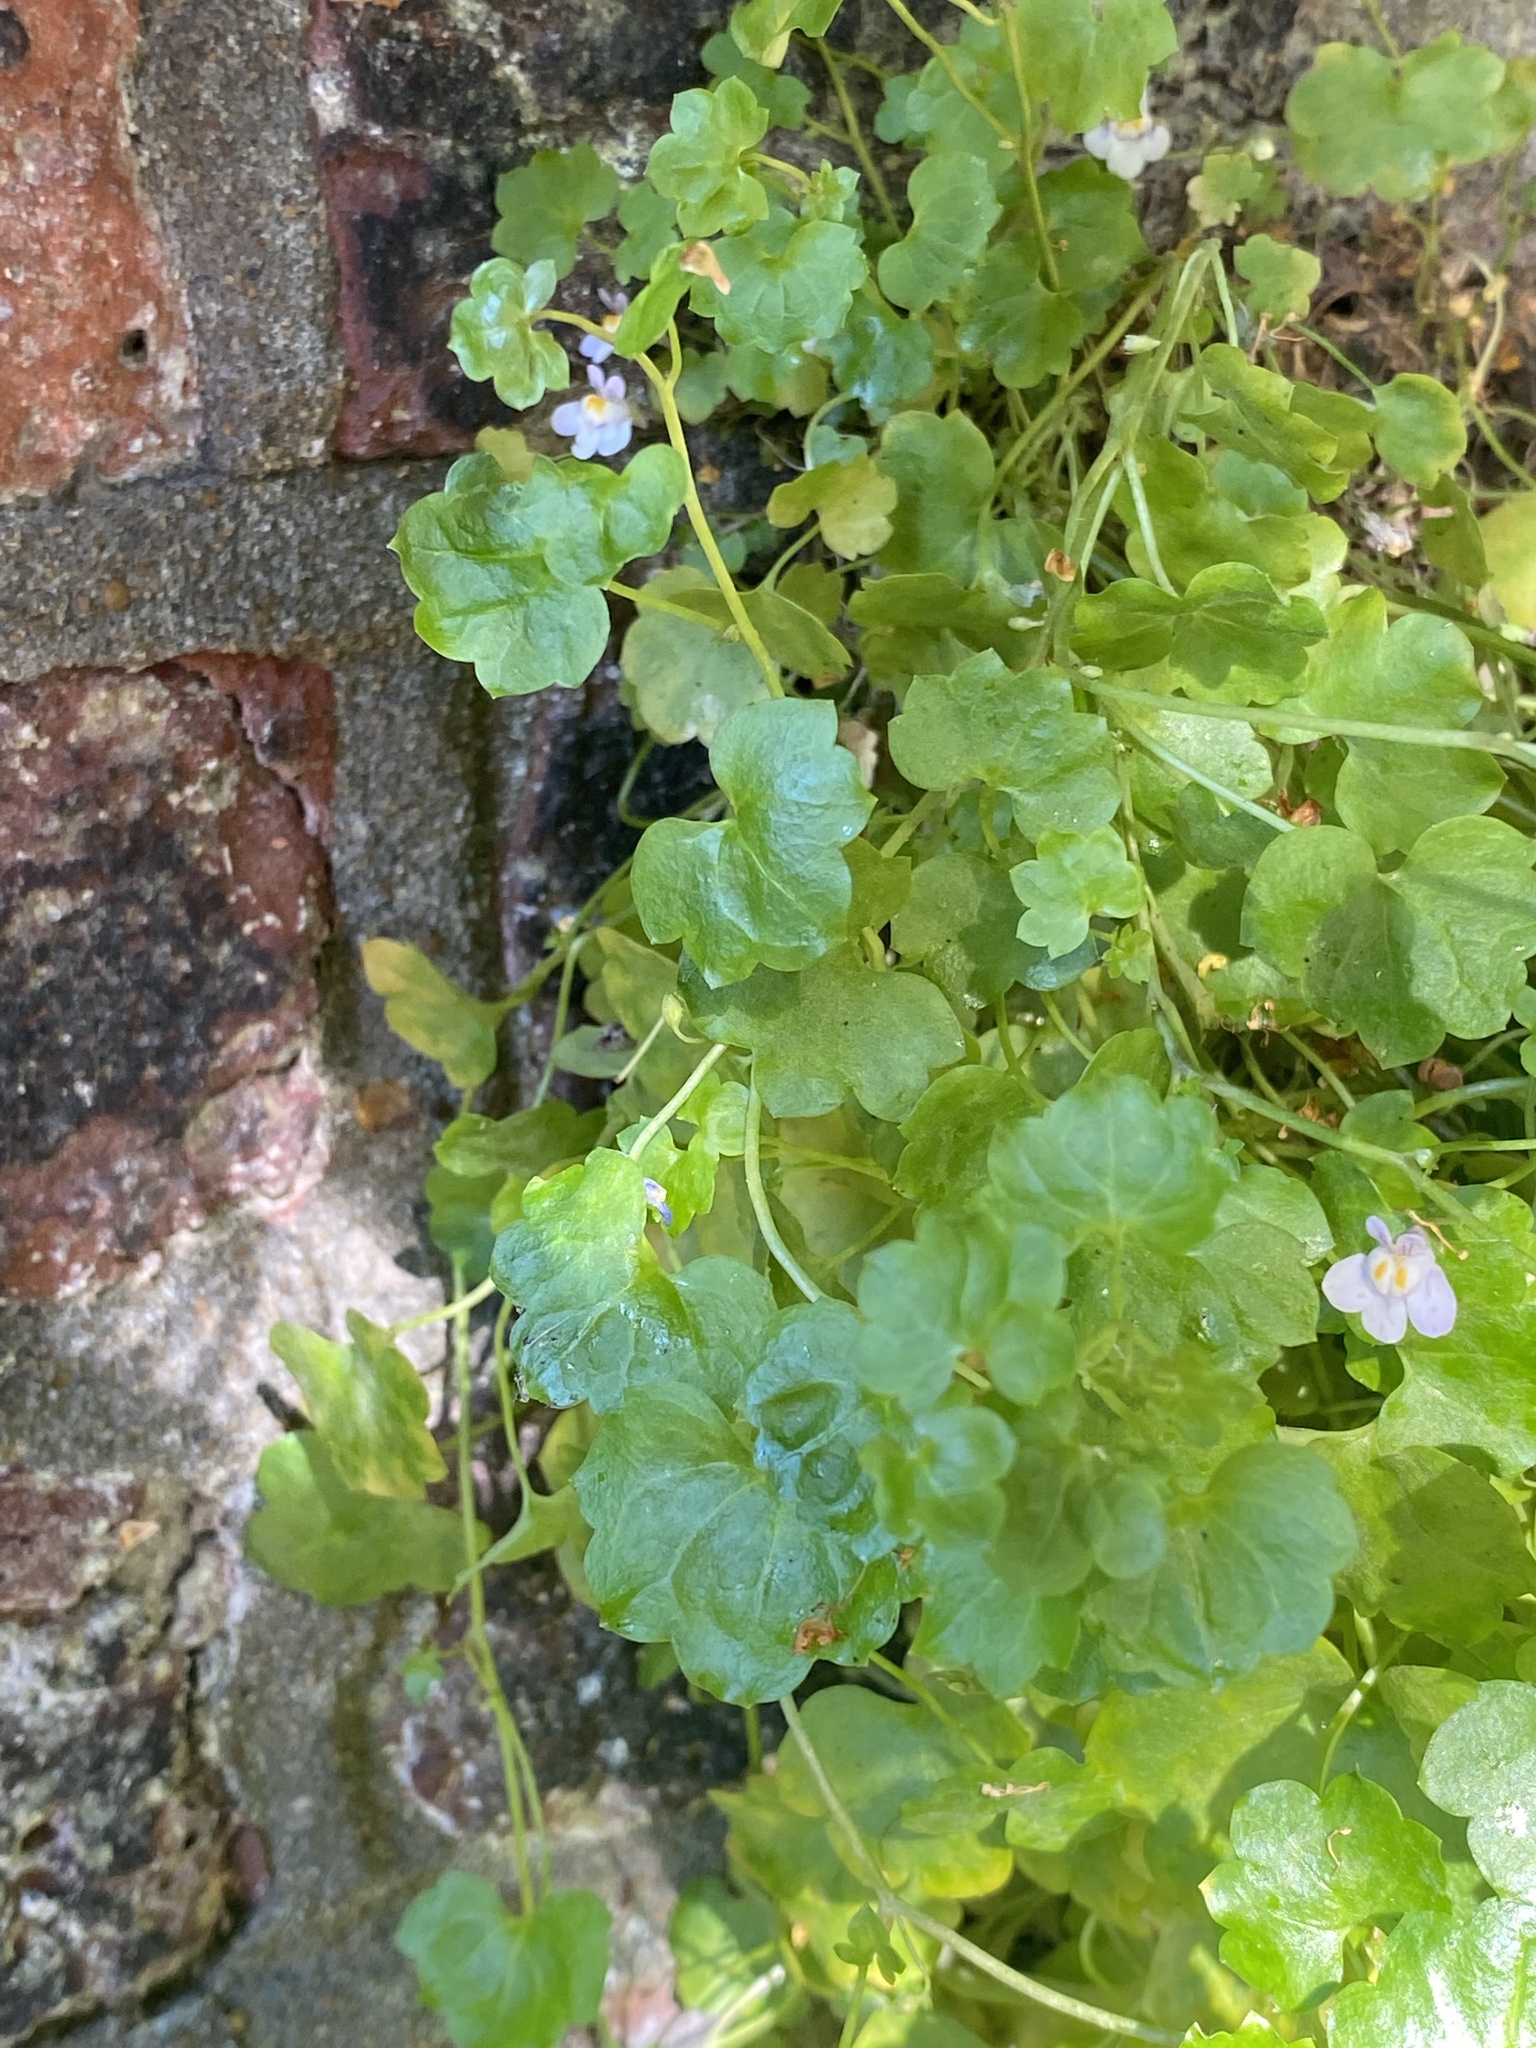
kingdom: Plantae
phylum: Tracheophyta
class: Magnoliopsida
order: Lamiales
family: Plantaginaceae
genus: Cymbalaria
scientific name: Cymbalaria muralis
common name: Ivy-leaved toadflax
